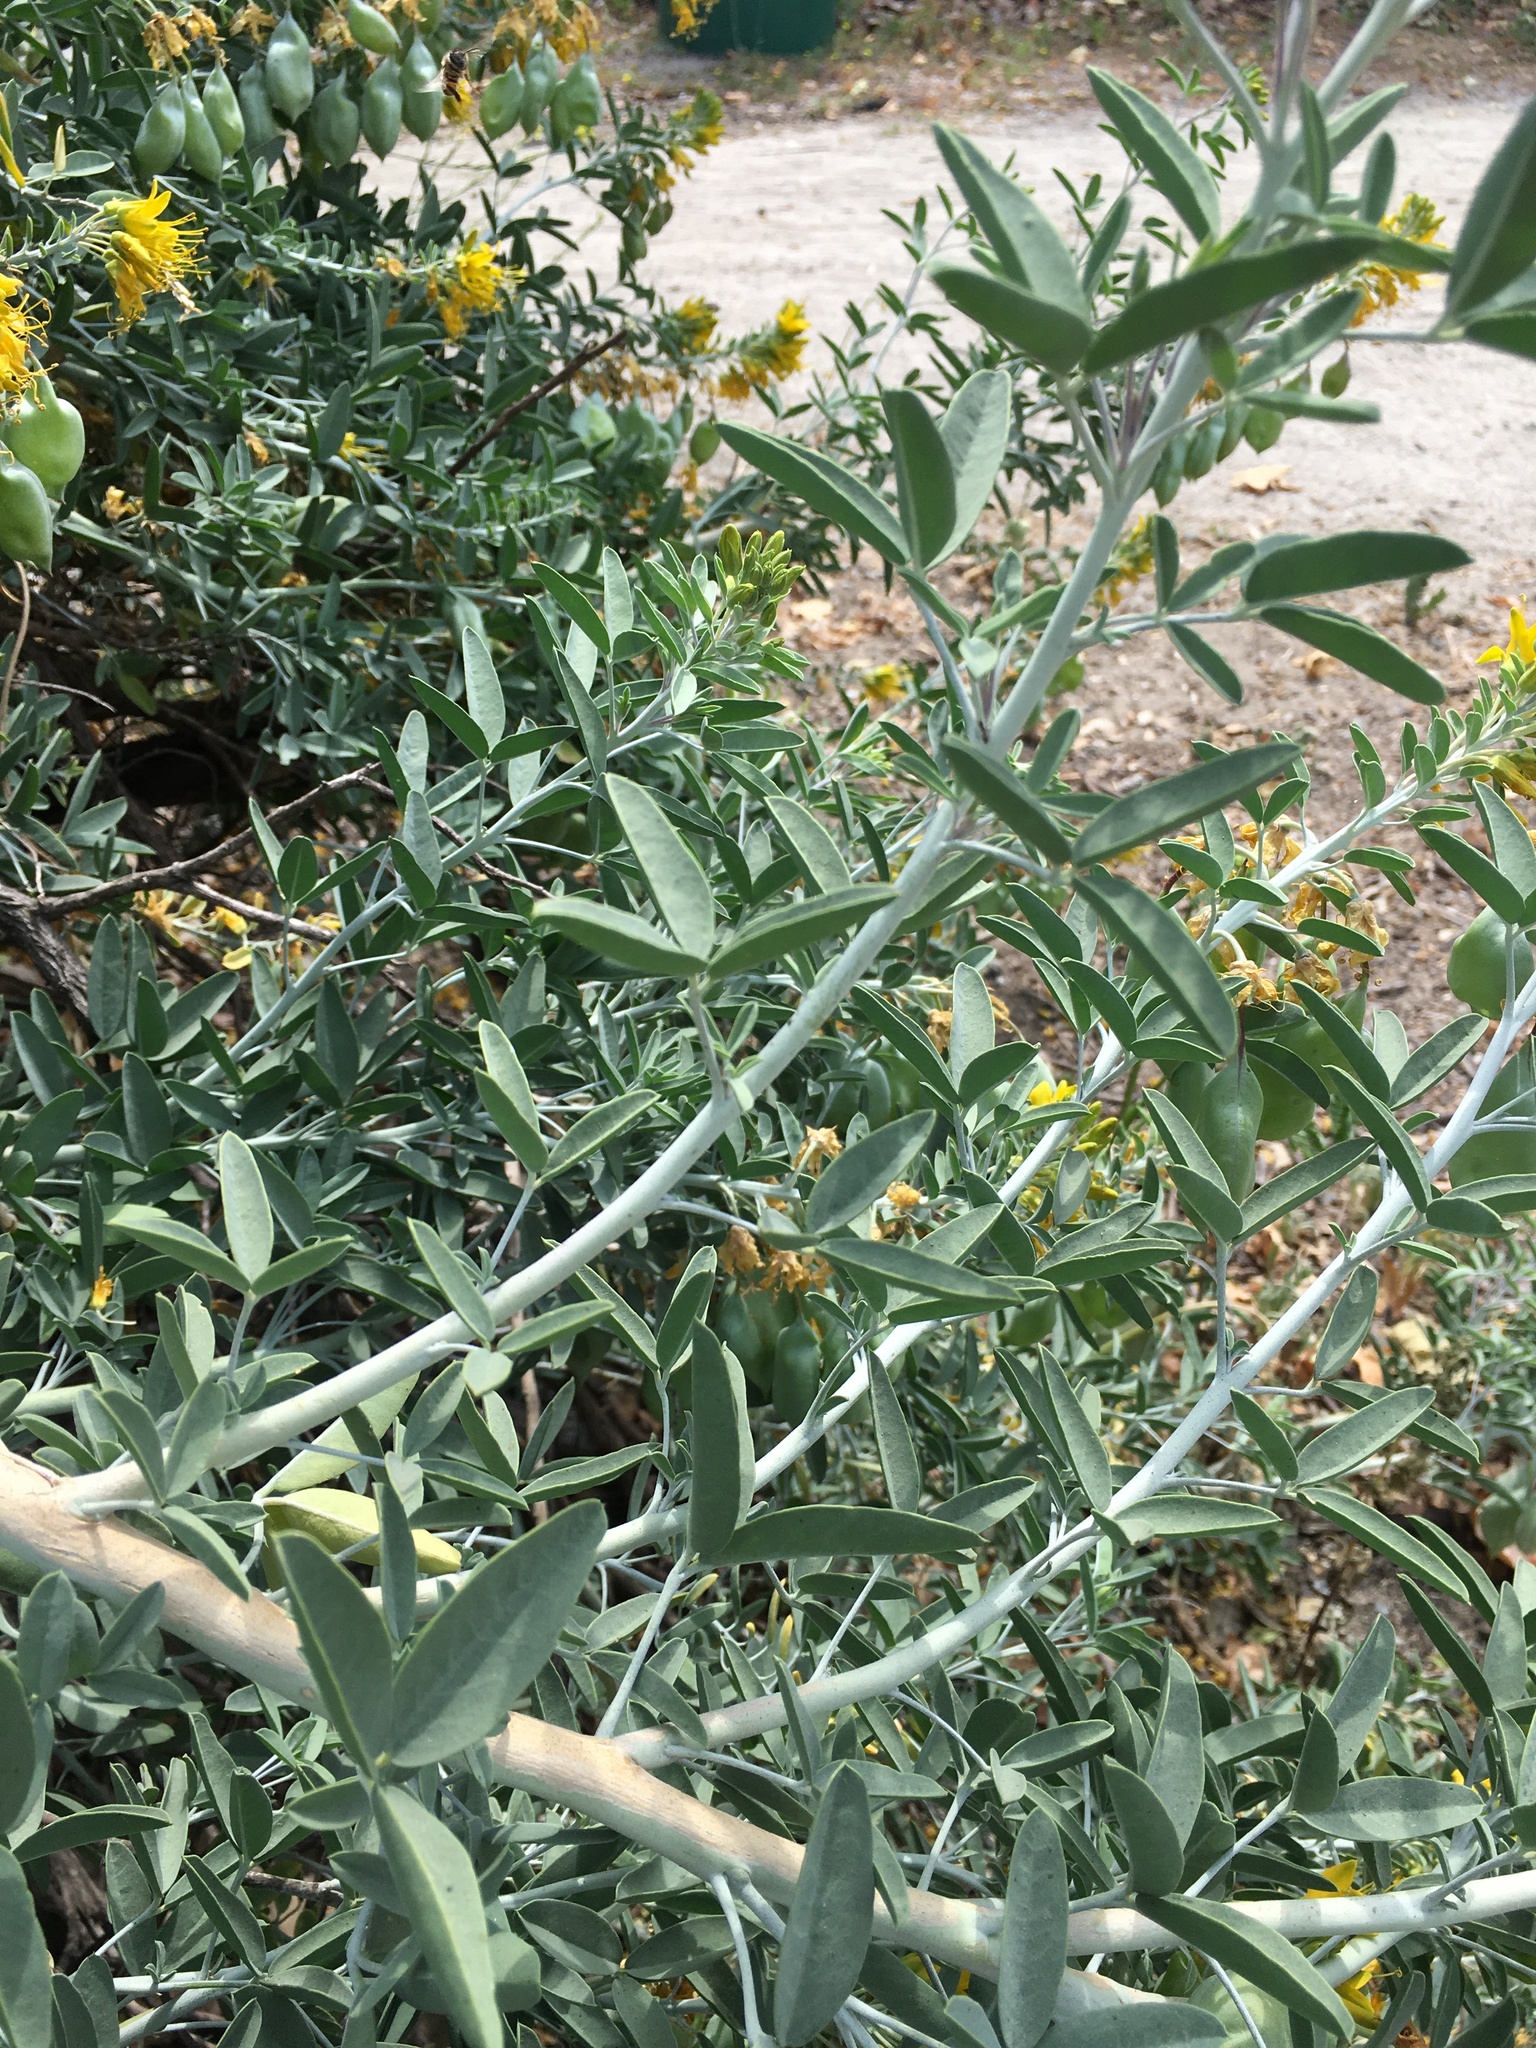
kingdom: Plantae
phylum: Tracheophyta
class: Magnoliopsida
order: Brassicales
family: Cleomaceae
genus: Cleomella
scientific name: Cleomella arborea
